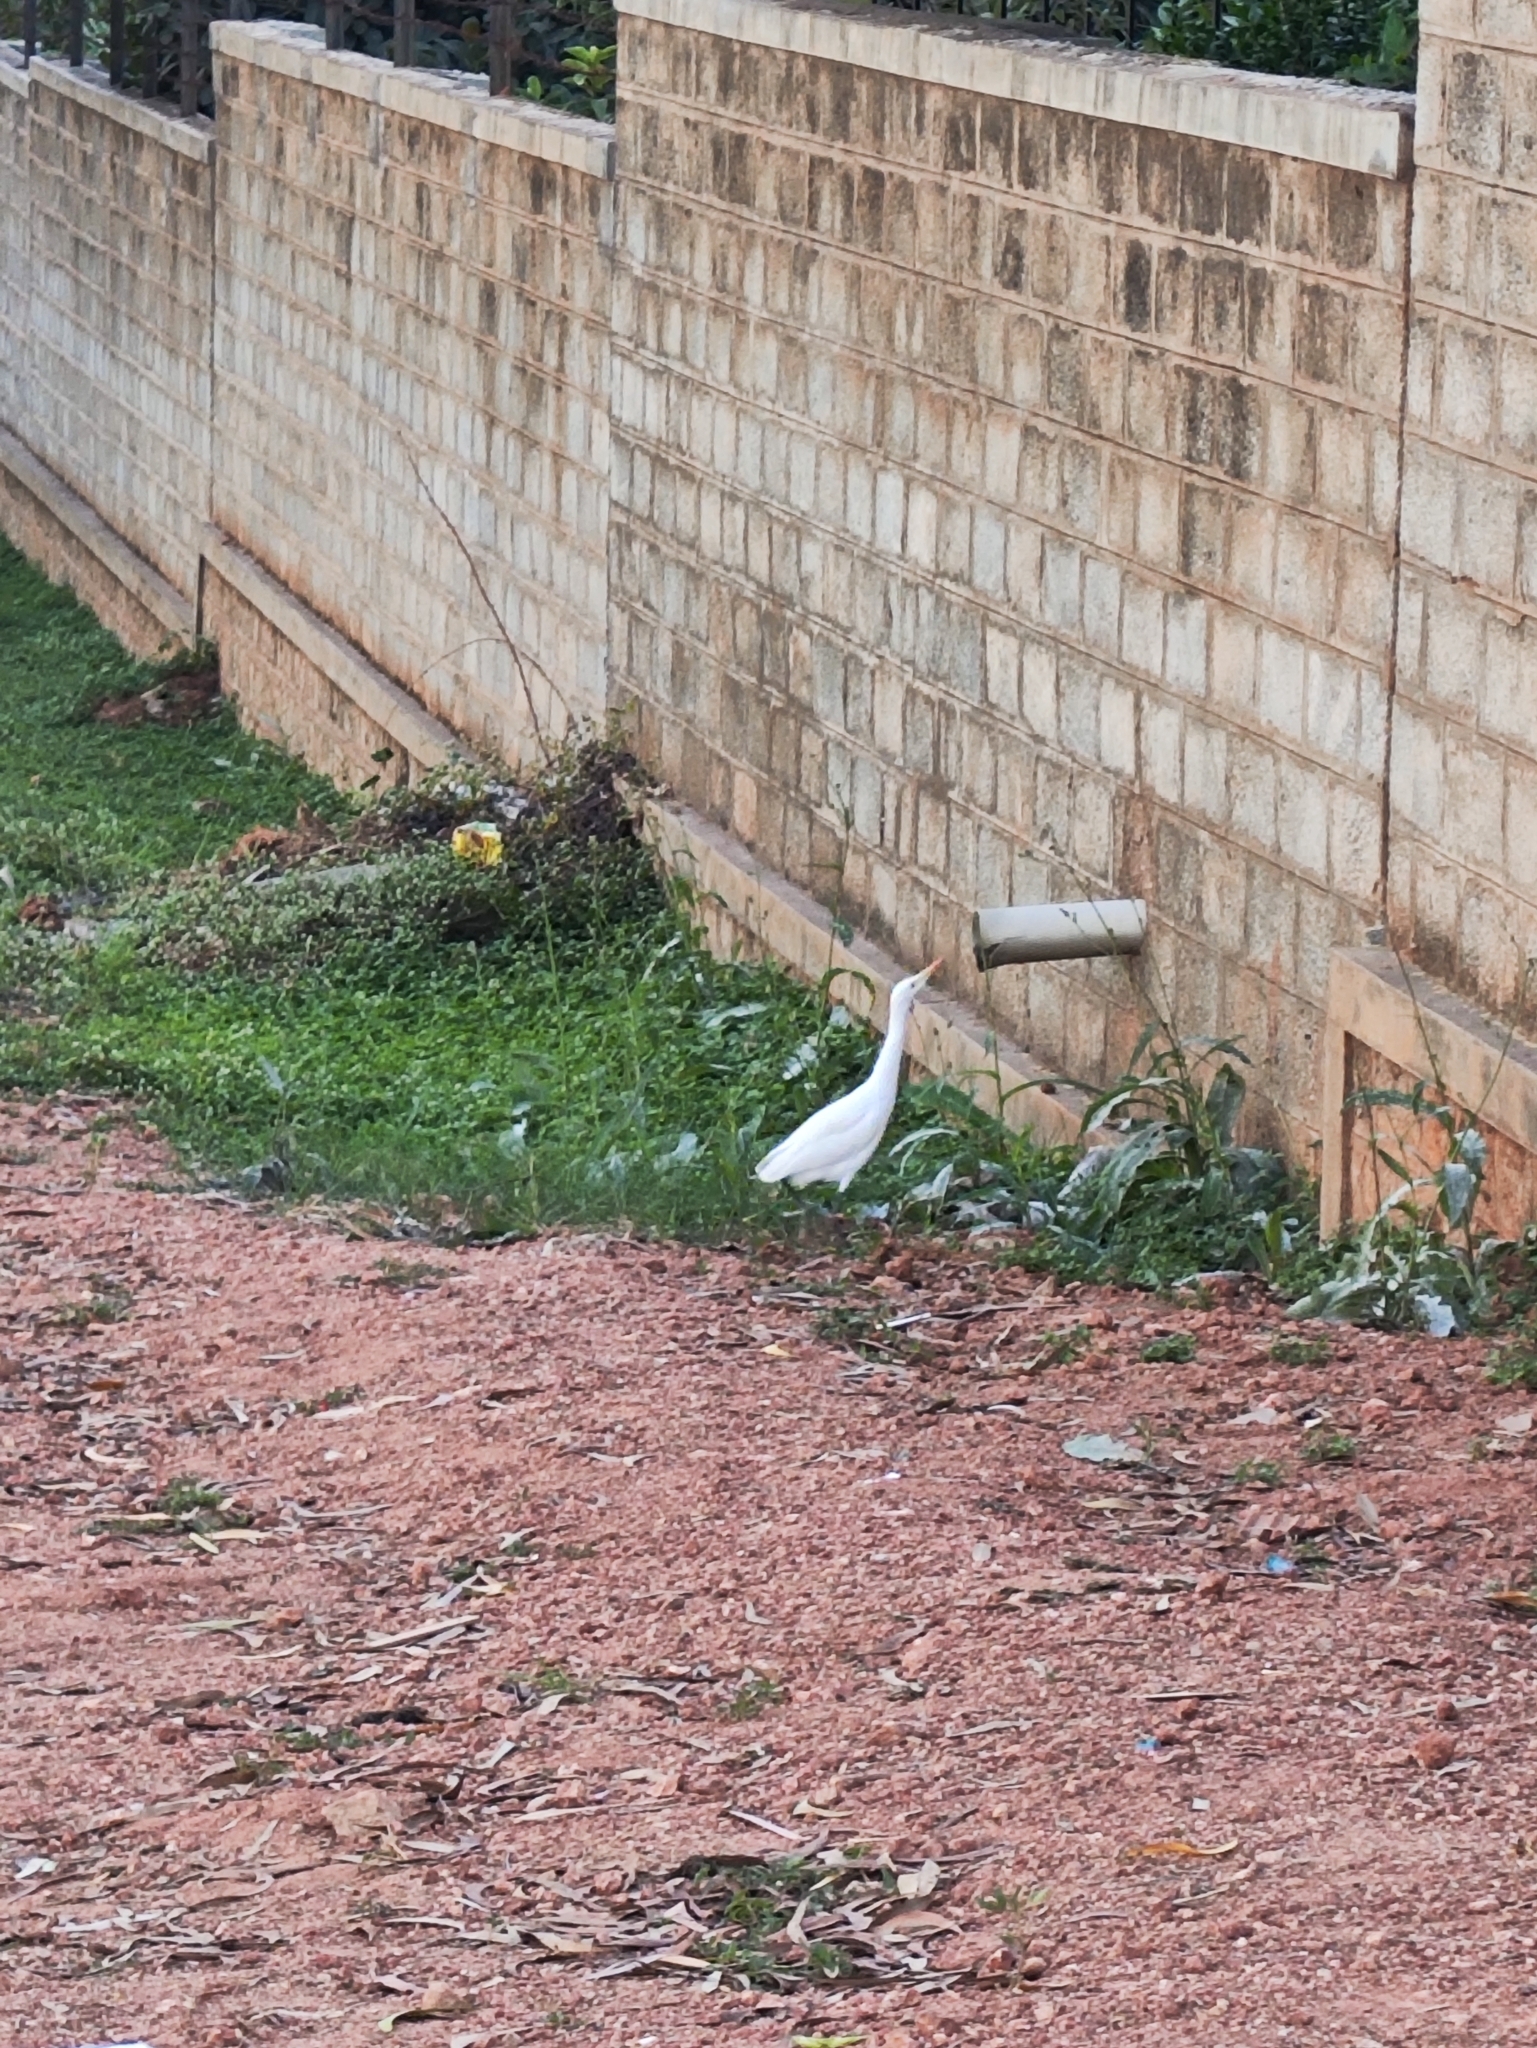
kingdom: Animalia
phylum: Chordata
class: Aves
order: Pelecaniformes
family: Ardeidae
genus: Bubulcus
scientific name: Bubulcus coromandus
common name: Eastern cattle egret
